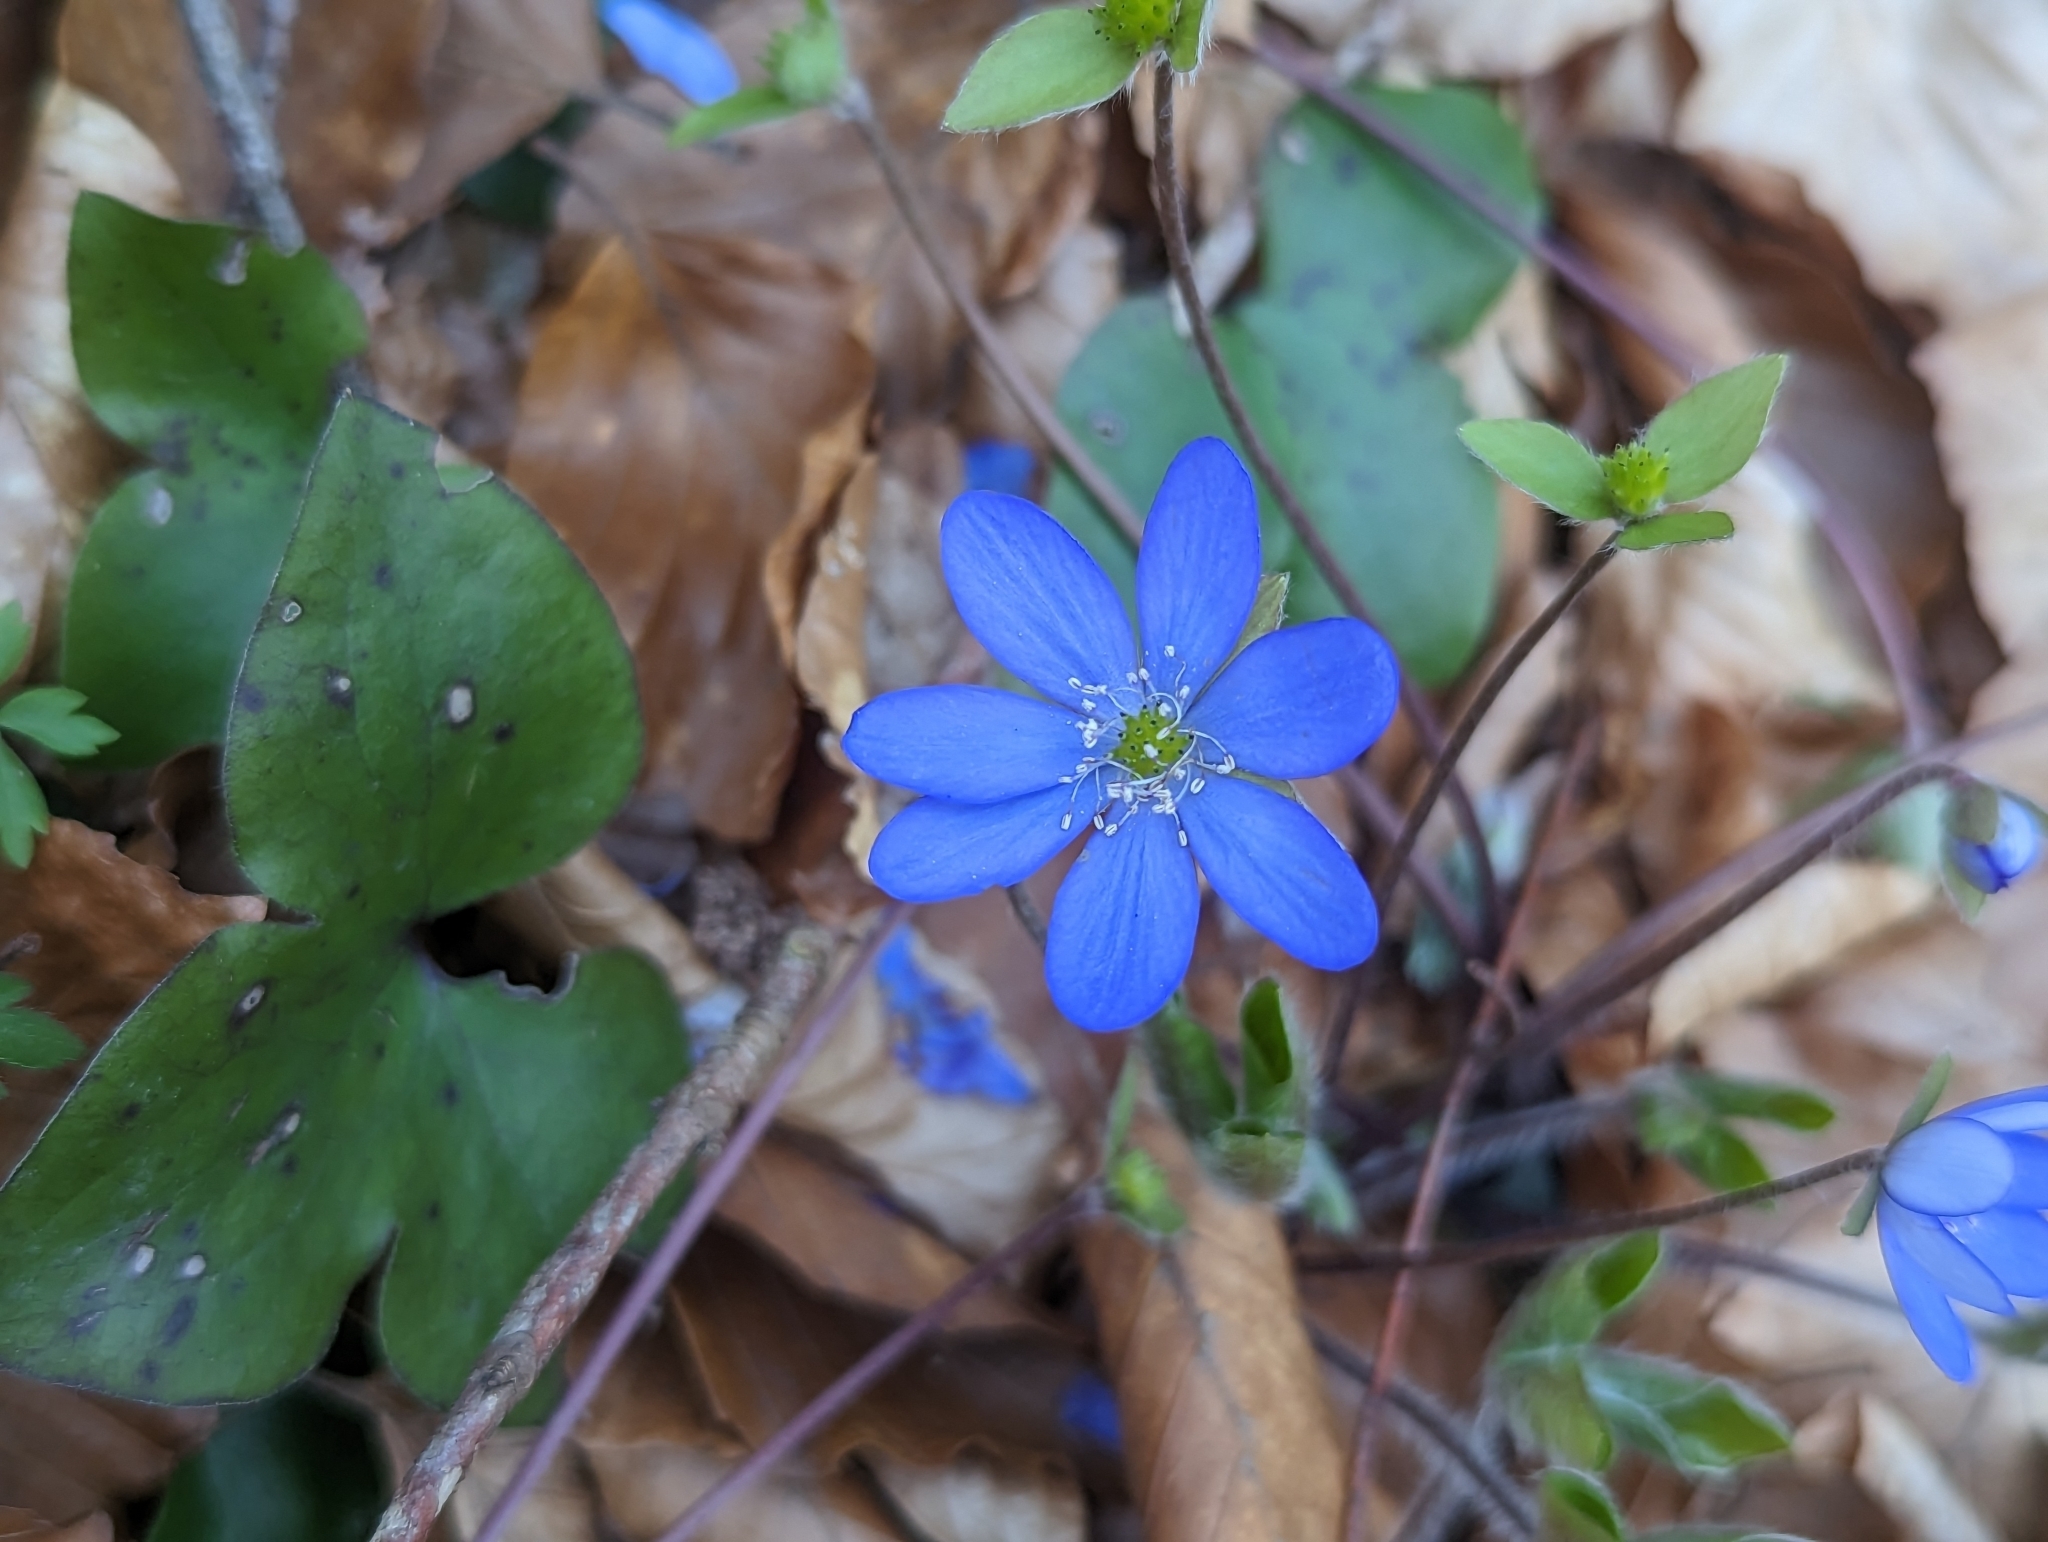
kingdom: Plantae
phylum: Tracheophyta
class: Magnoliopsida
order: Ranunculales
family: Ranunculaceae
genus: Hepatica
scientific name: Hepatica nobilis
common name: Liverleaf
